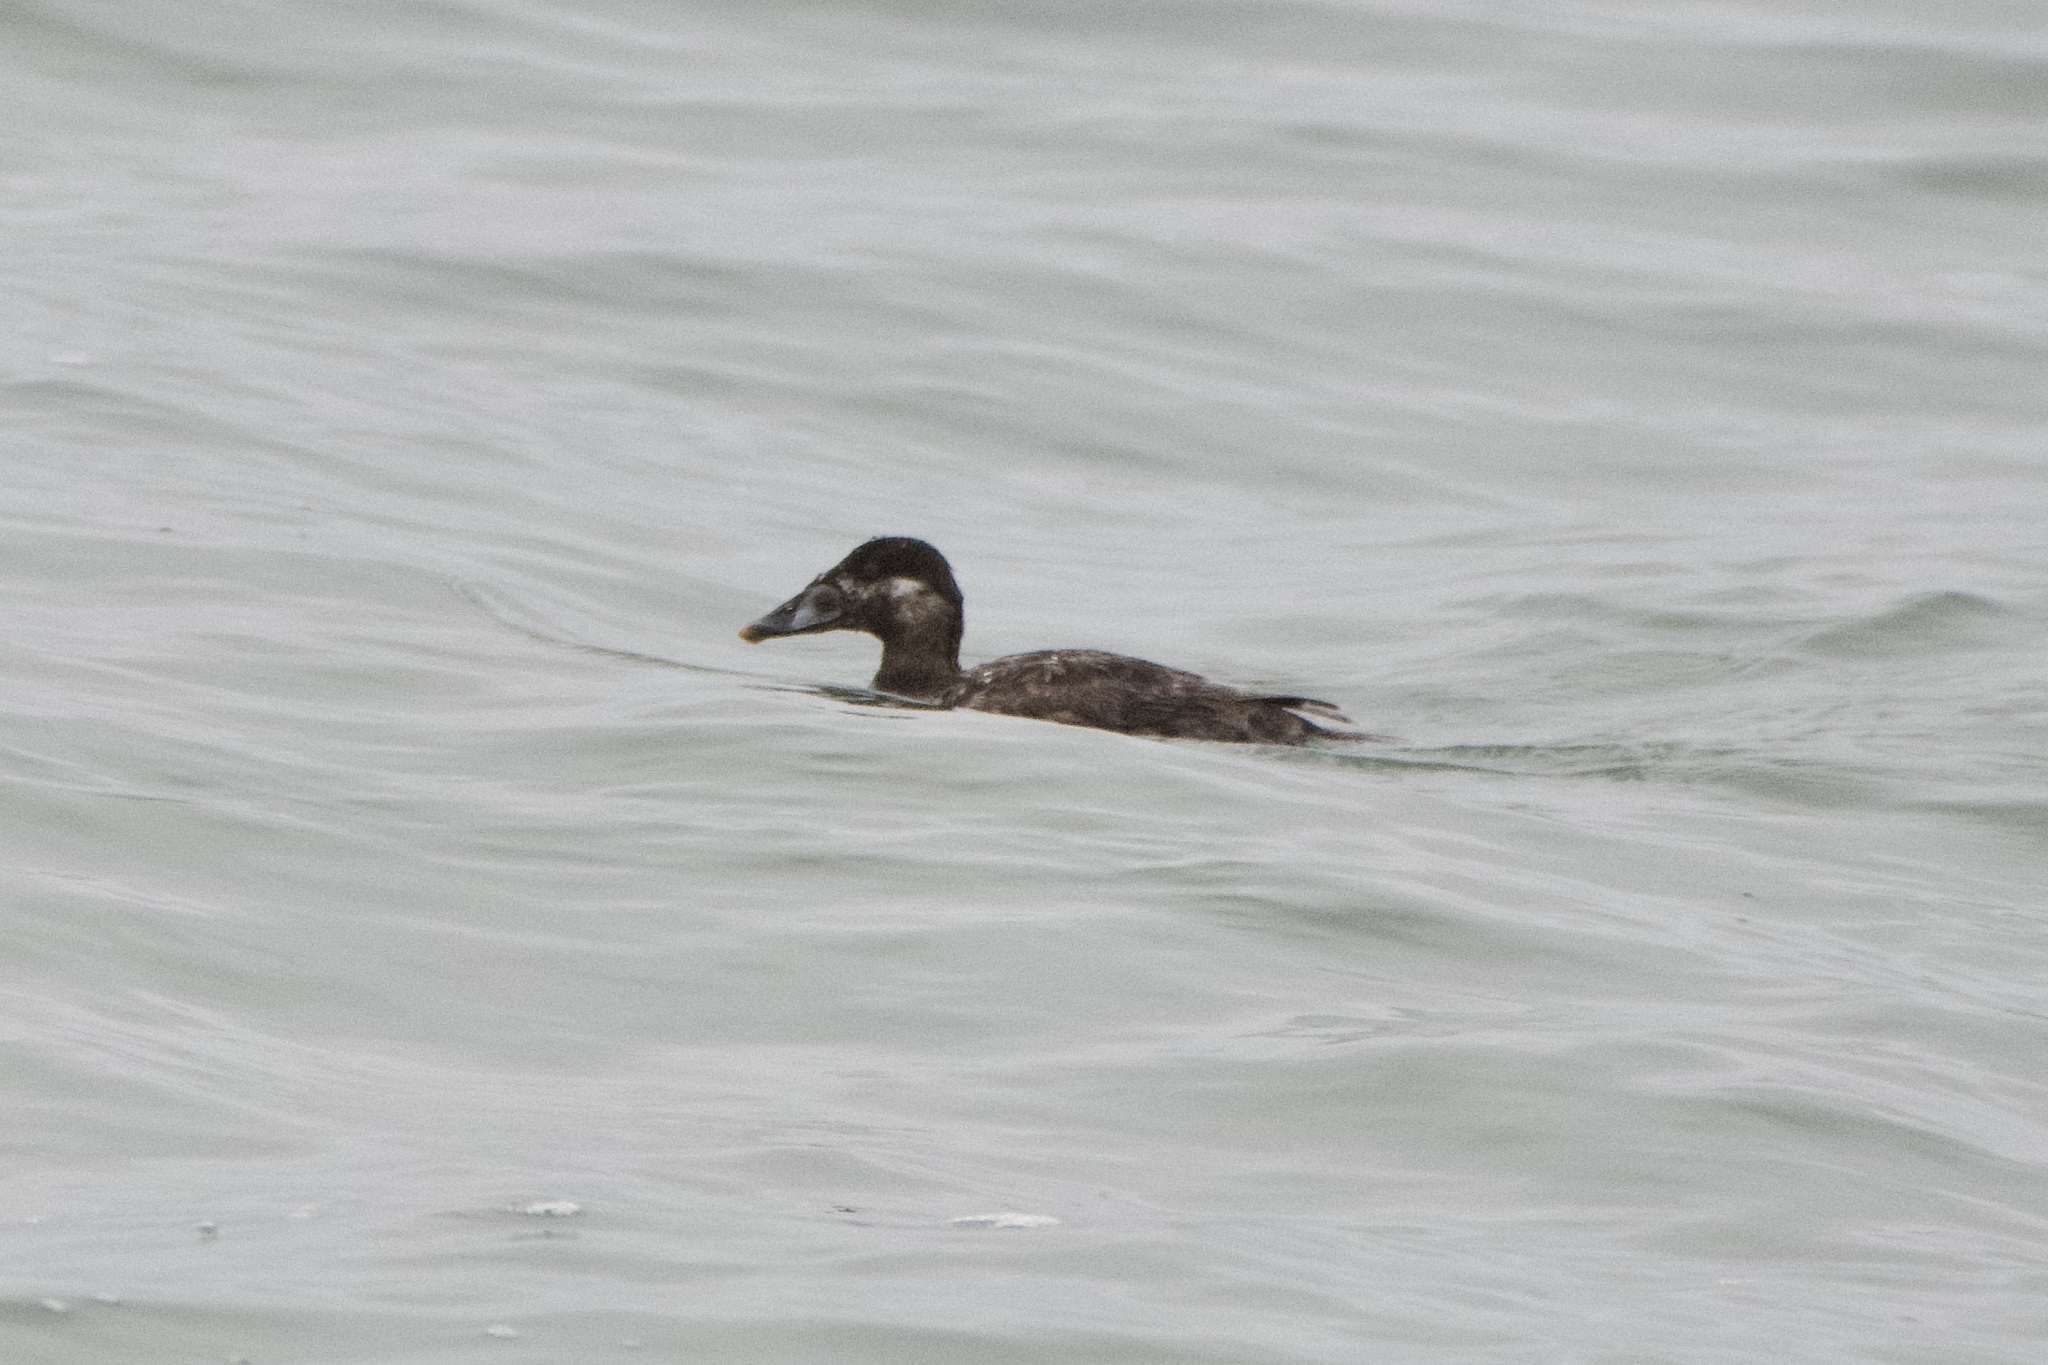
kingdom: Animalia
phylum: Chordata
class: Aves
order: Anseriformes
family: Anatidae
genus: Melanitta
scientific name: Melanitta perspicillata
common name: Surf scoter
